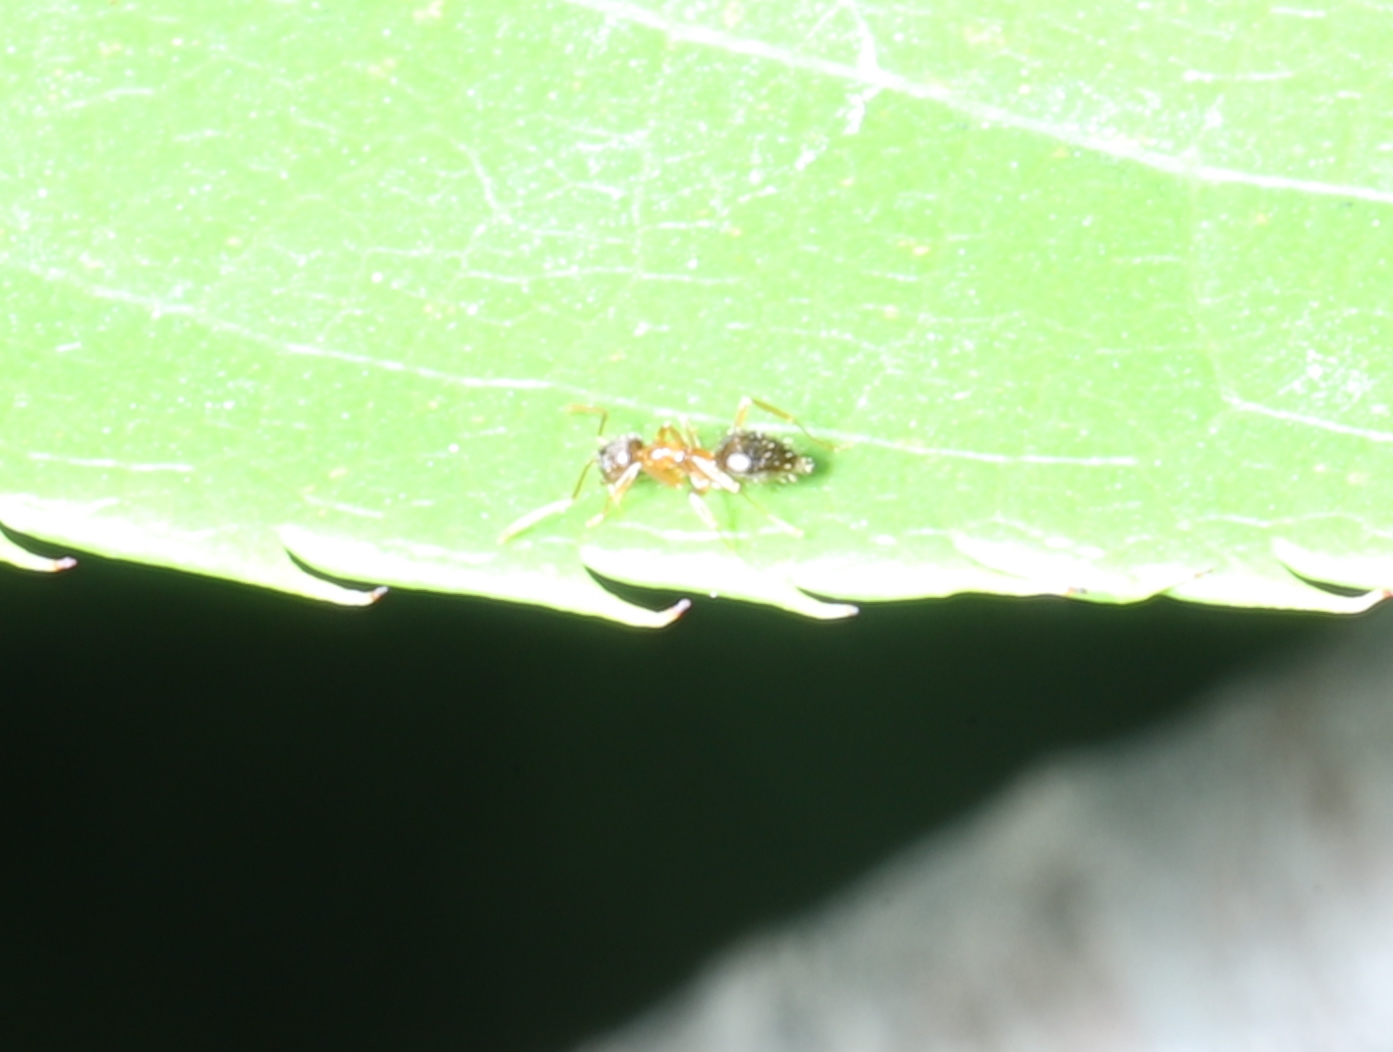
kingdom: Animalia
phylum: Arthropoda
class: Insecta
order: Hymenoptera
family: Formicidae
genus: Paratrechina
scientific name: Paratrechina flavipes
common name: Eastern asian formicine ant
